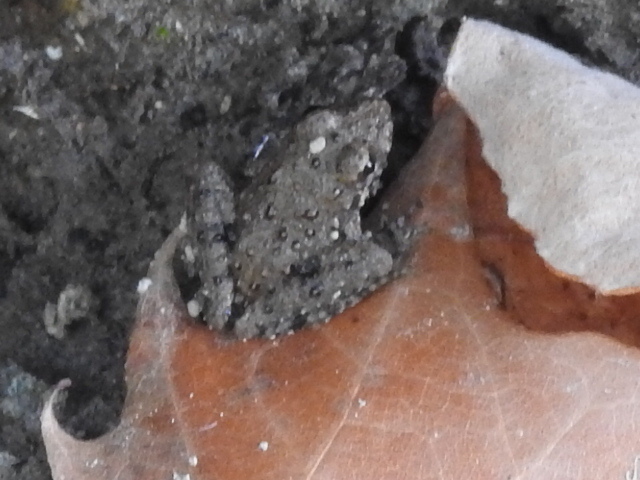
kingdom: Animalia
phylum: Chordata
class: Amphibia
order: Anura
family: Hylidae
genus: Acris
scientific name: Acris blanchardi
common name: Blanchard's cricket frog
